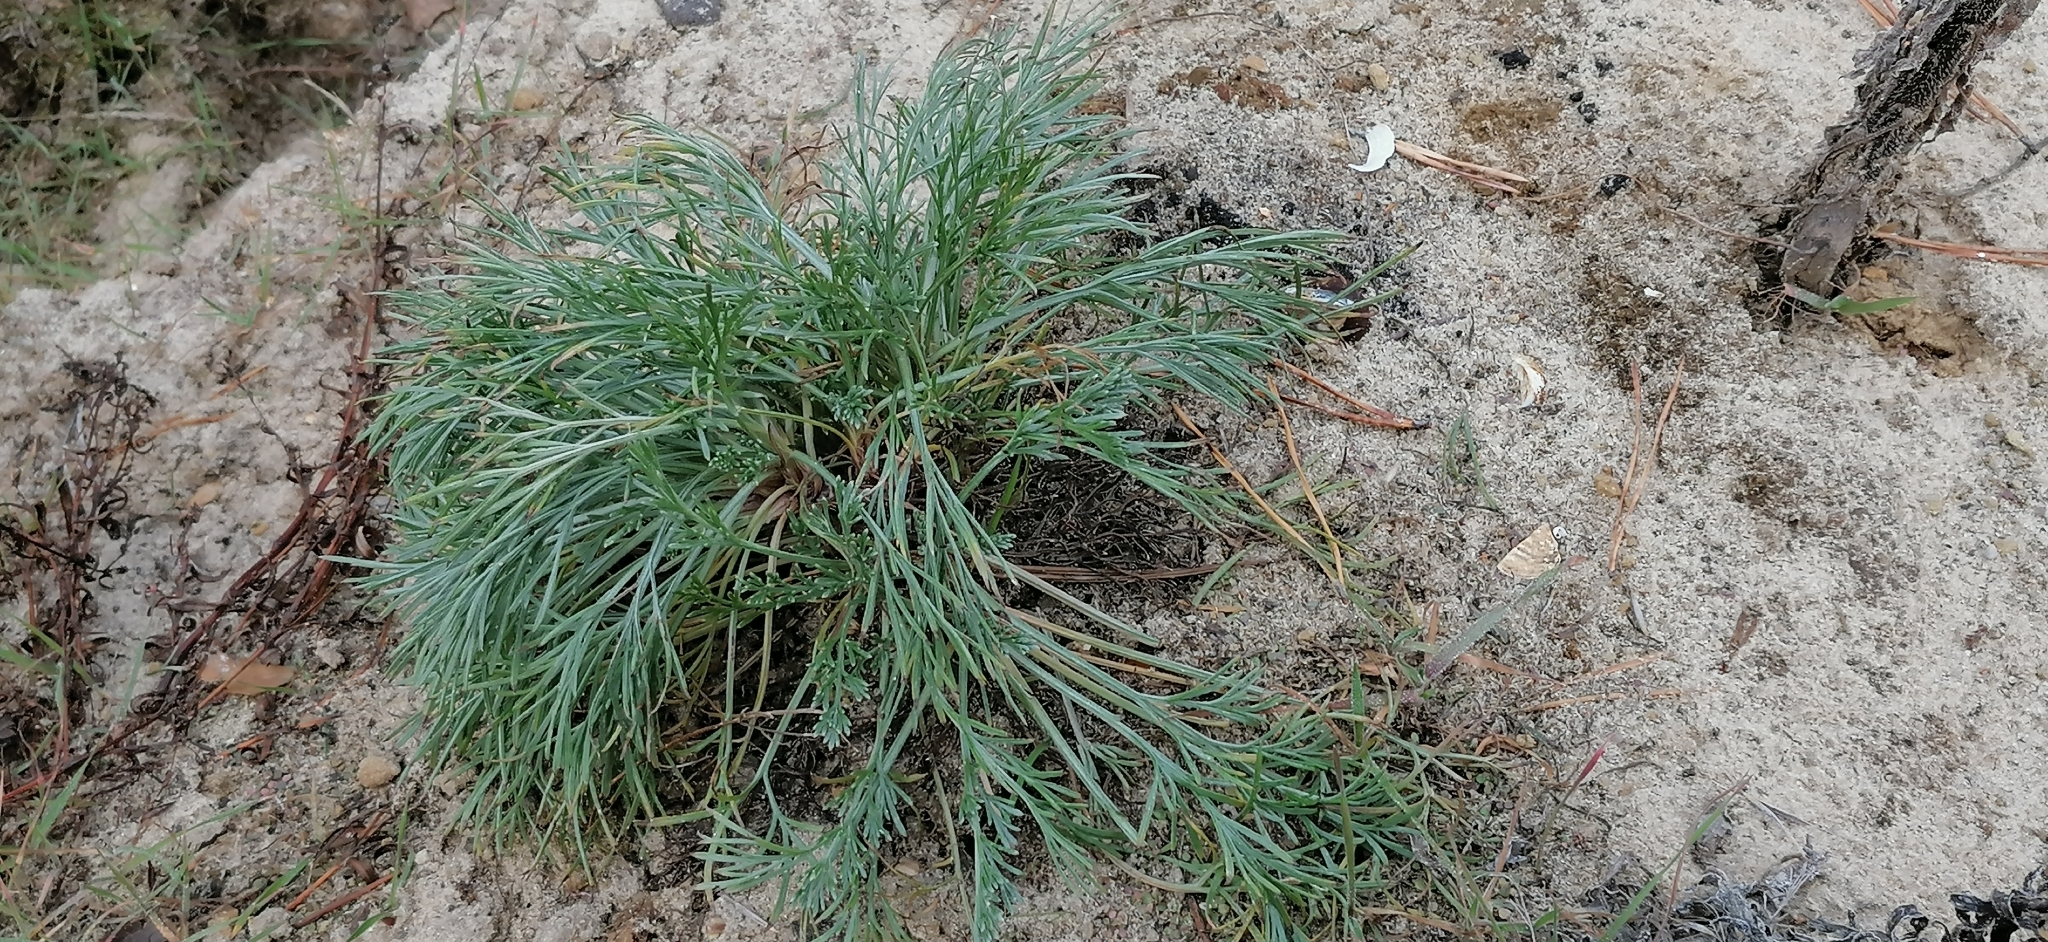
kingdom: Plantae
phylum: Tracheophyta
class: Magnoliopsida
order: Asterales
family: Asteraceae
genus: Artemisia
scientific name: Artemisia campestris
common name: Field wormwood
